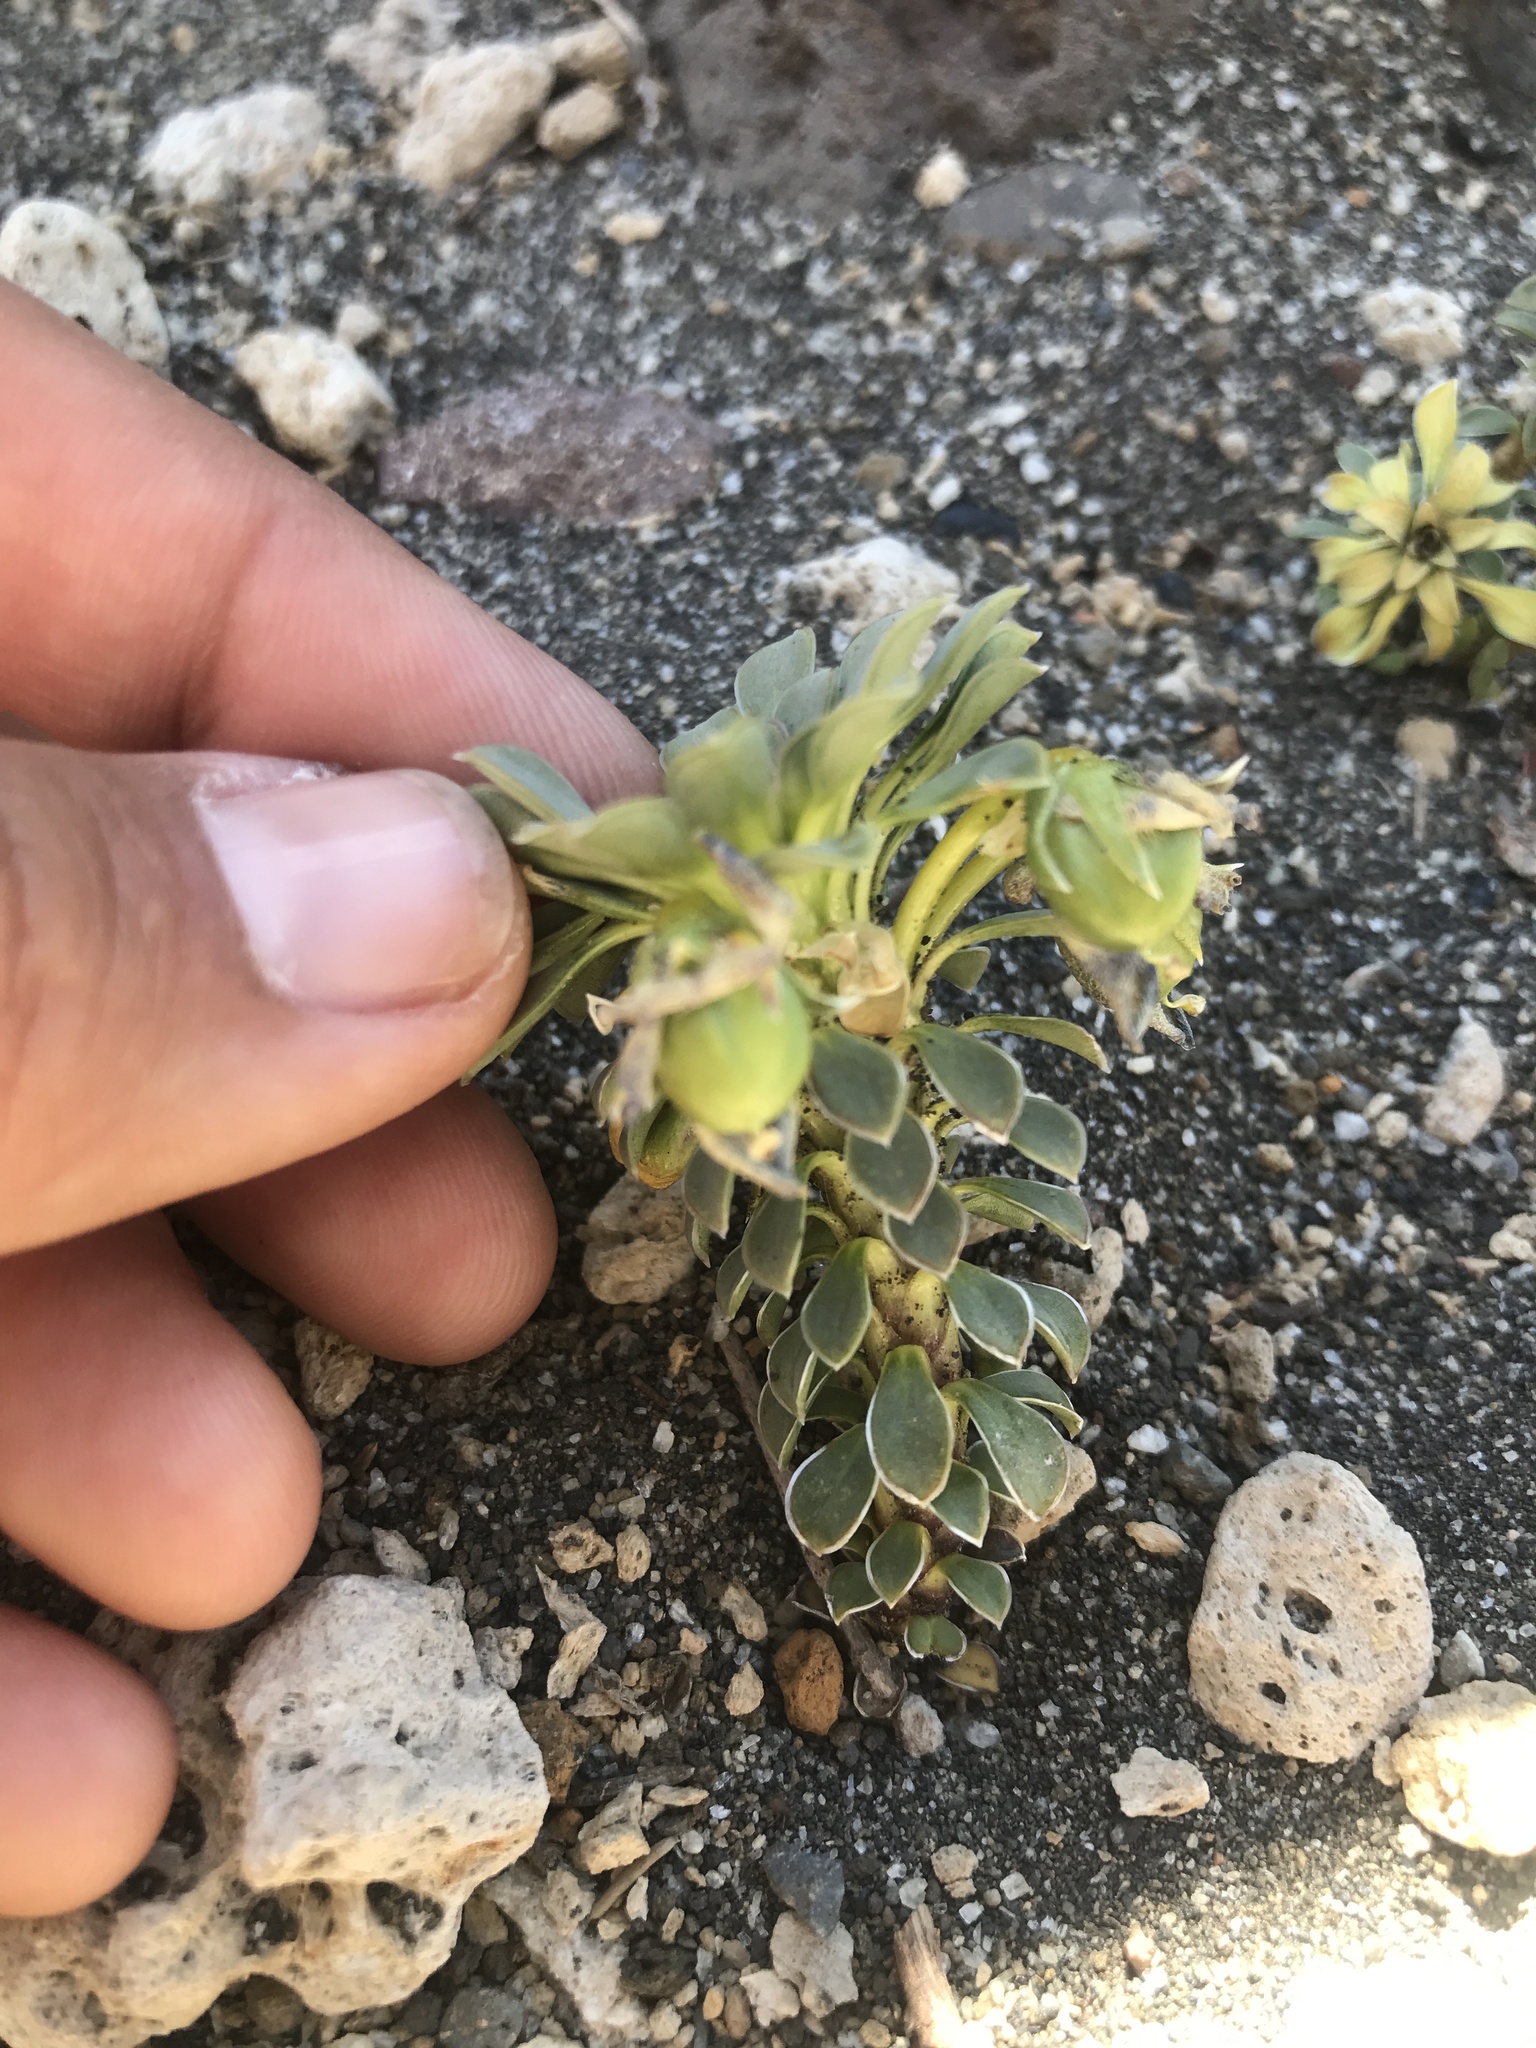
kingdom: Plantae
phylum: Tracheophyta
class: Magnoliopsida
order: Malpighiales
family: Violaceae
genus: Viola
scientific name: Viola cotyledon
